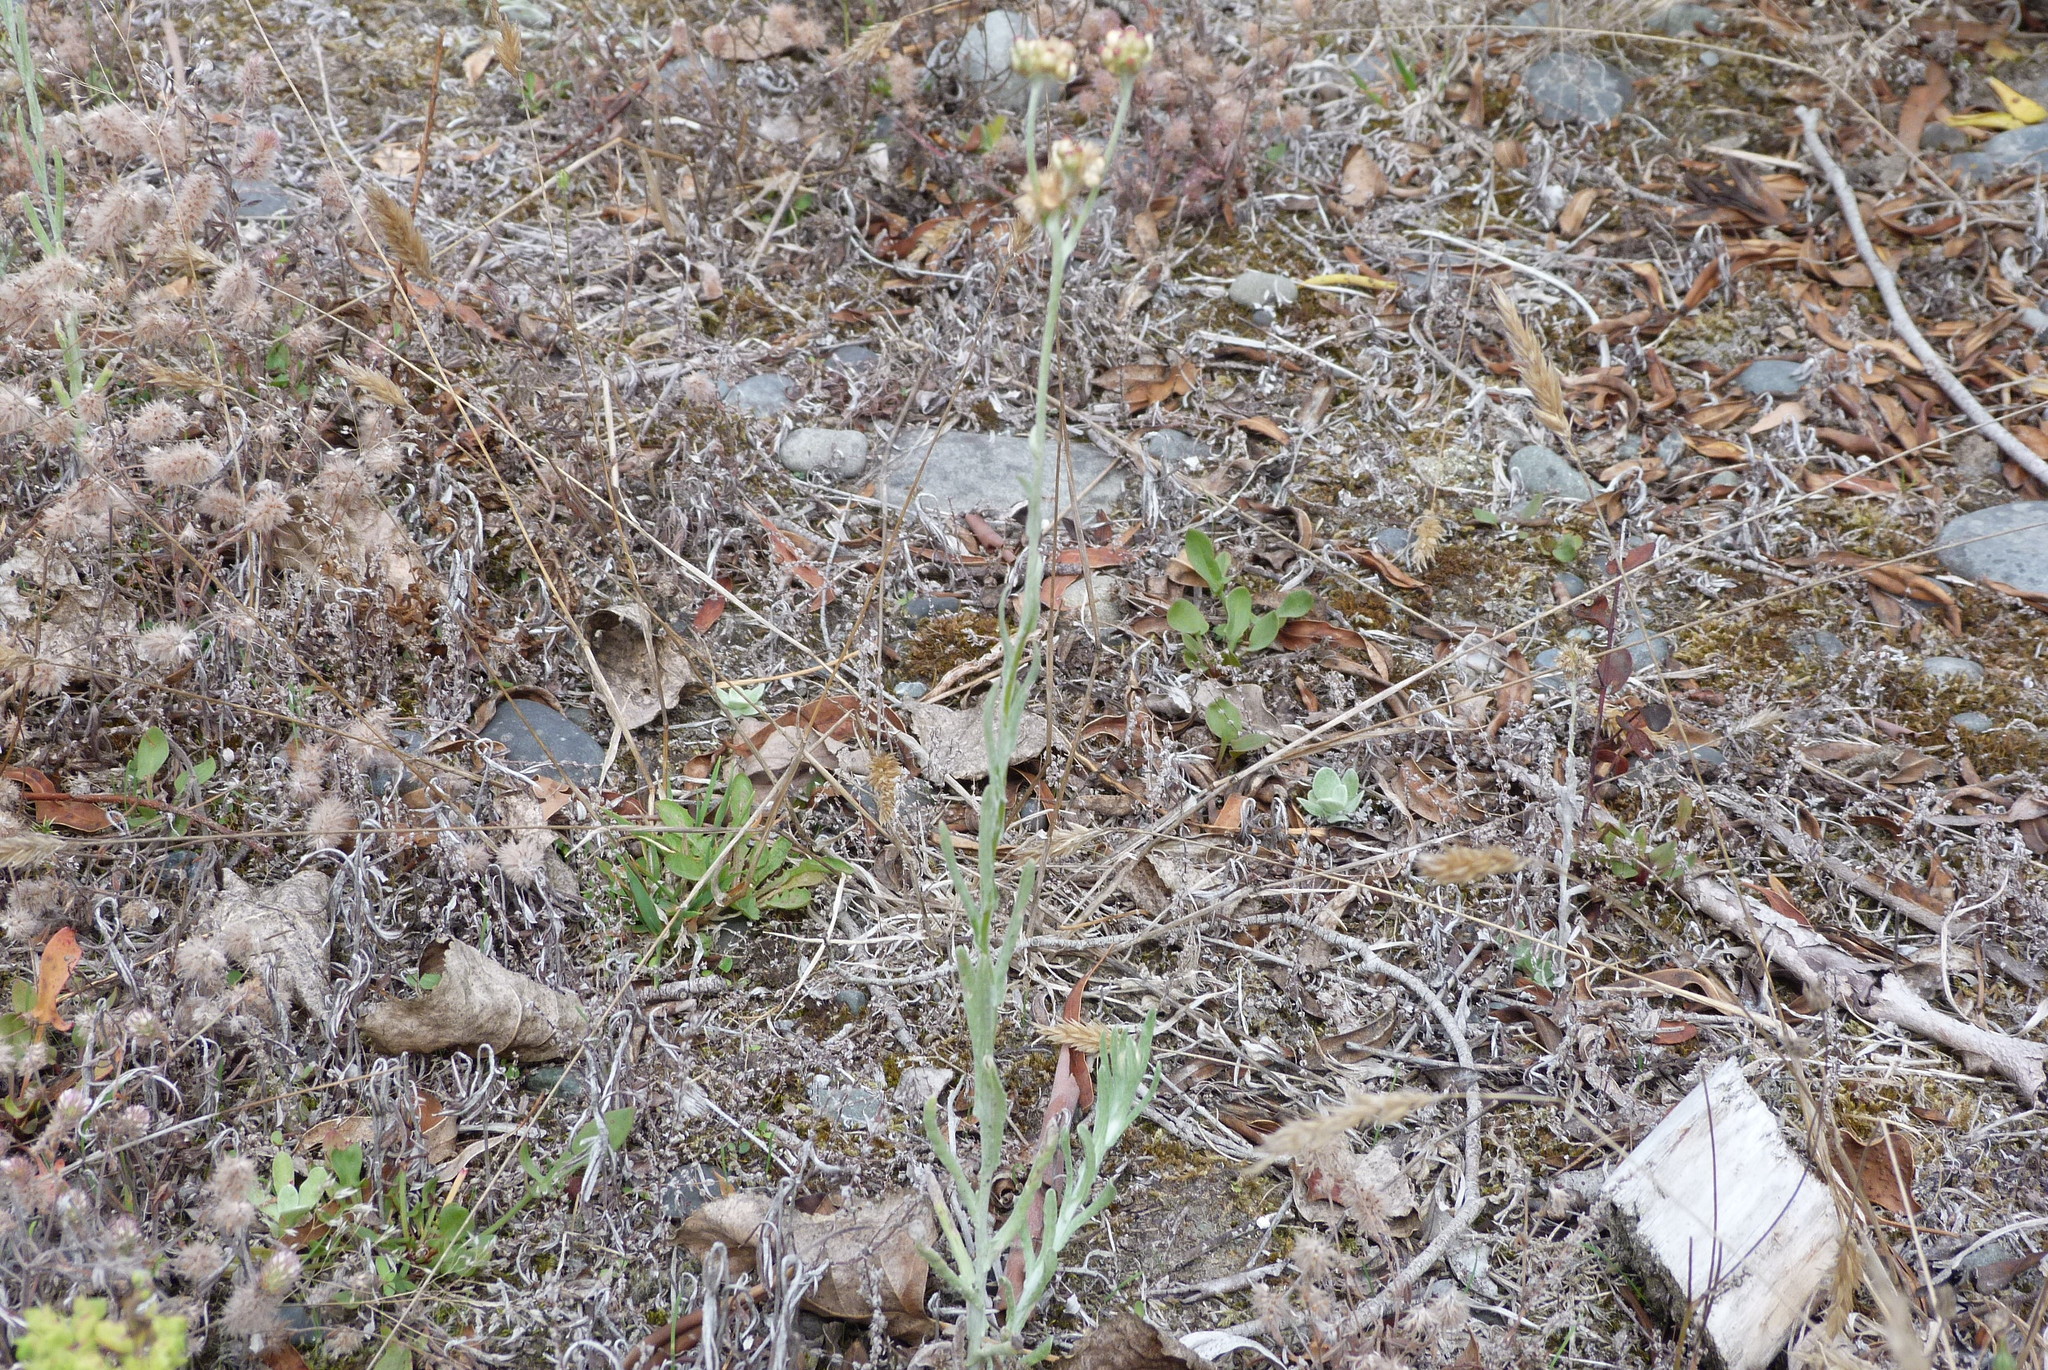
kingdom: Plantae
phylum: Tracheophyta
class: Magnoliopsida
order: Asterales
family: Asteraceae
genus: Helichrysum
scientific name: Helichrysum luteoalbum
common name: Daisy
